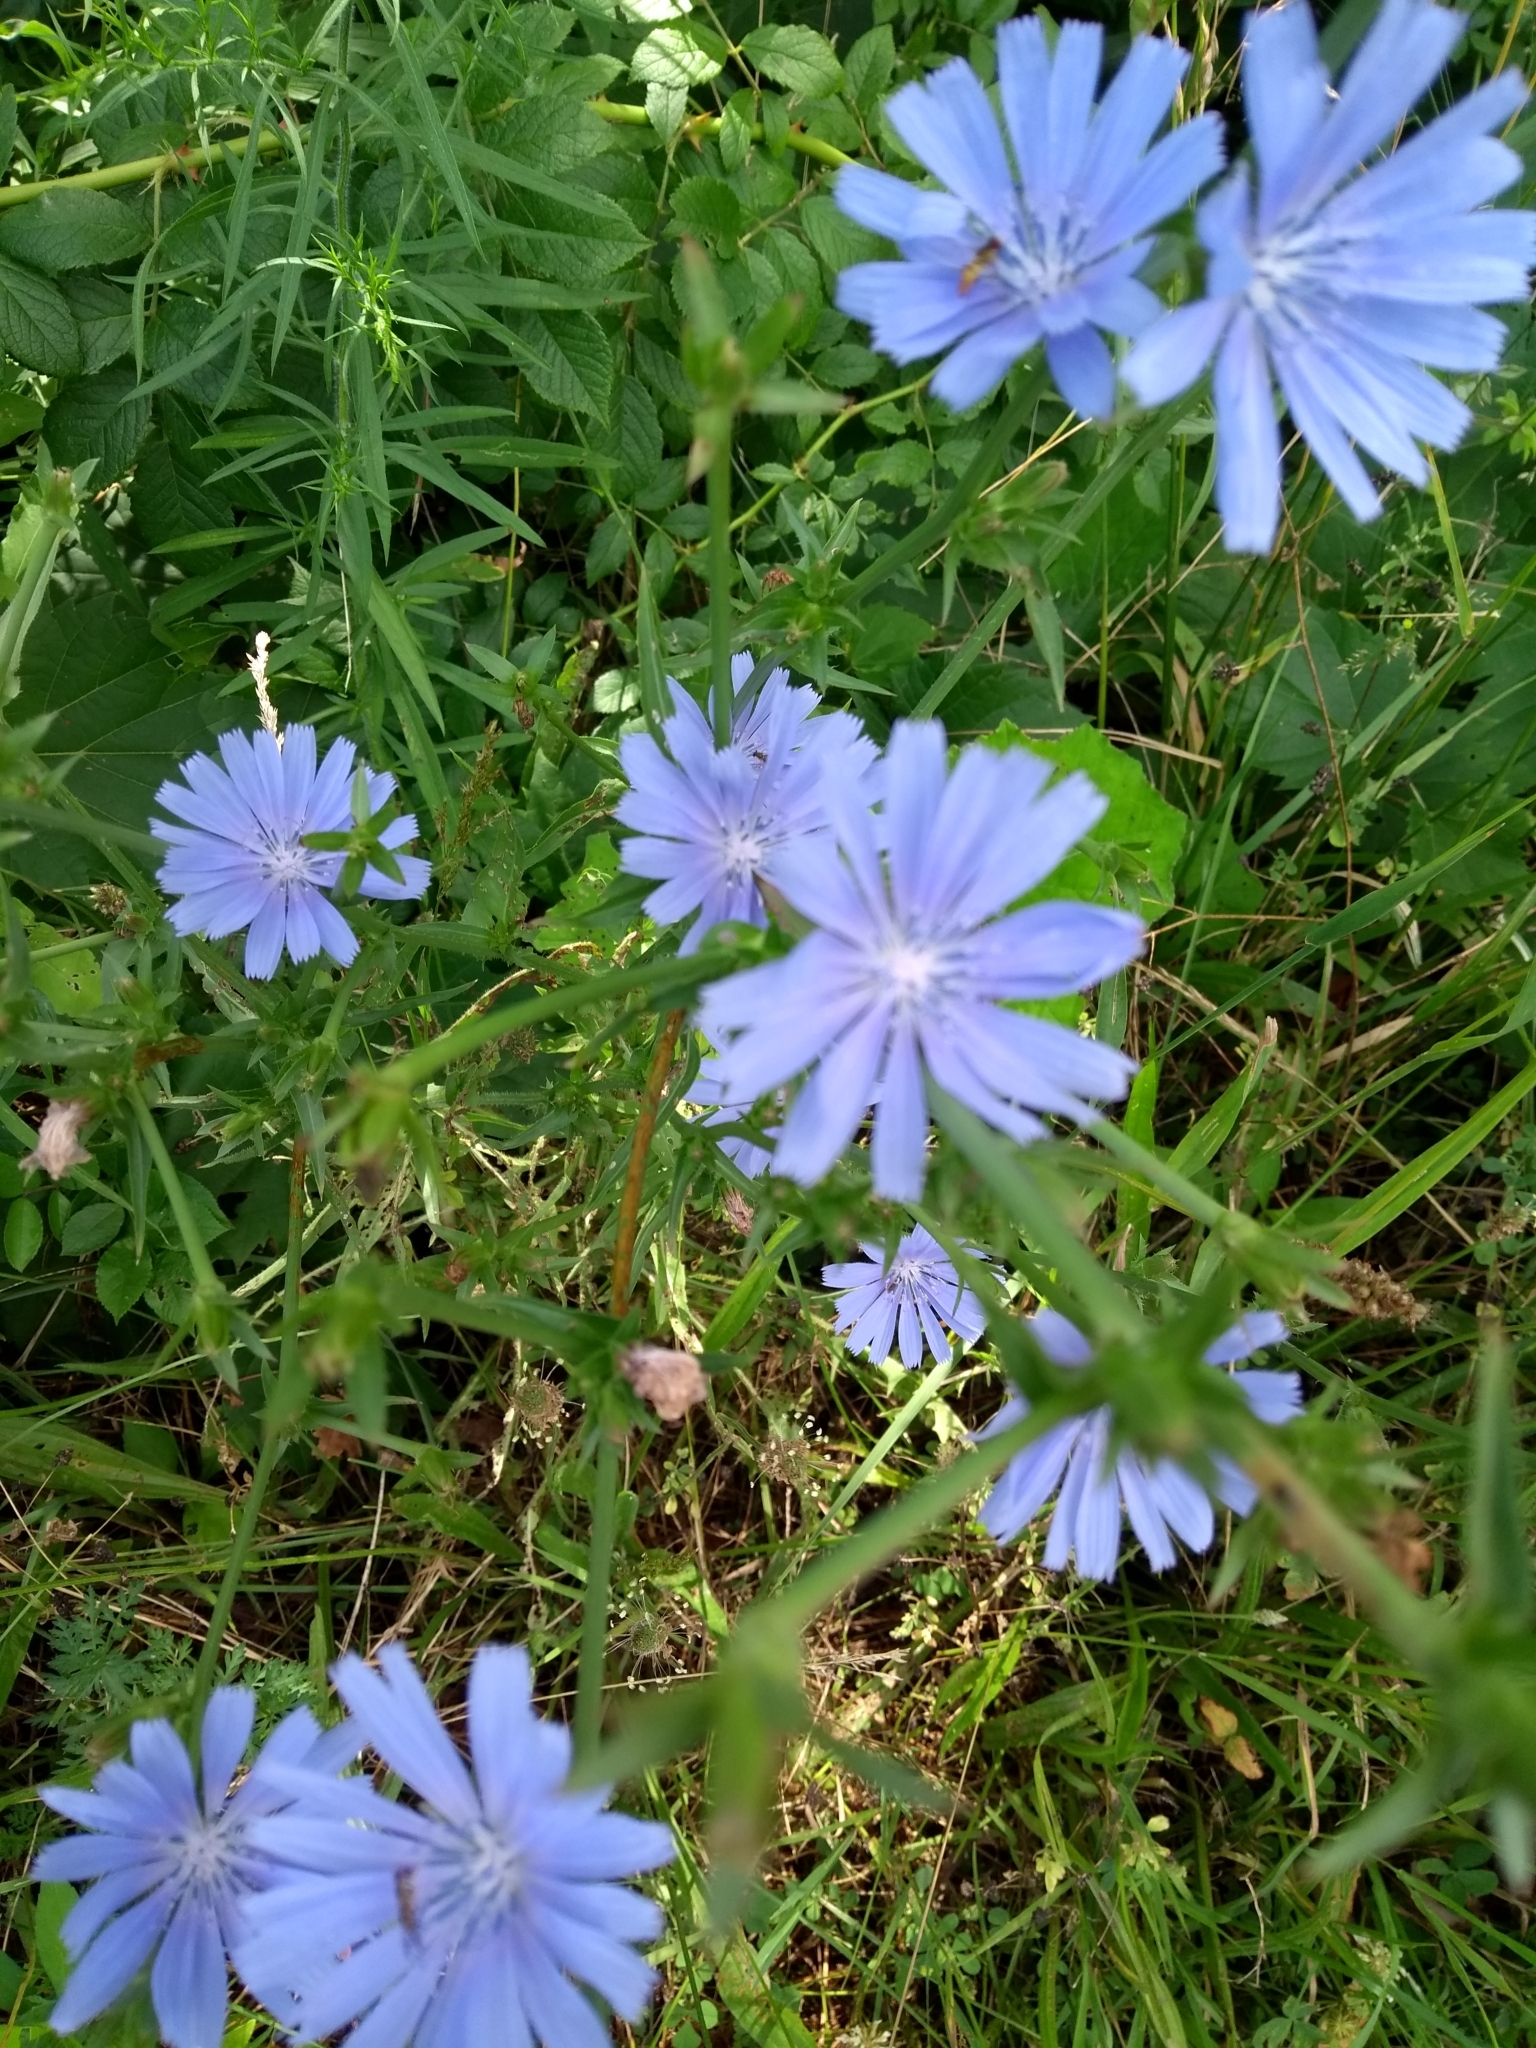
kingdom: Plantae
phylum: Tracheophyta
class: Magnoliopsida
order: Asterales
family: Asteraceae
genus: Cichorium
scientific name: Cichorium intybus
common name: Chicory
